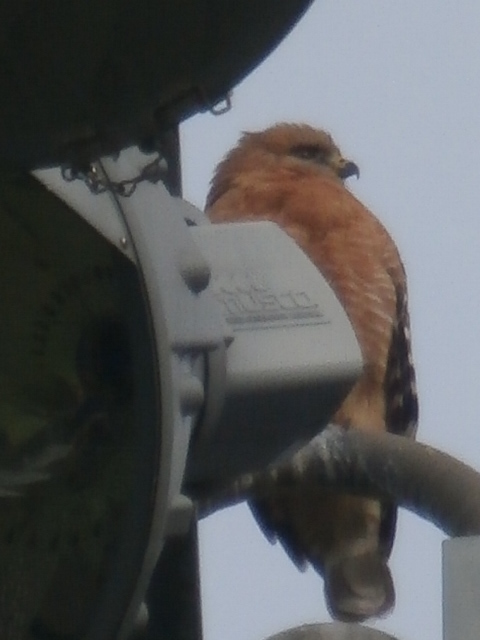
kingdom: Animalia
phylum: Chordata
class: Aves
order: Accipitriformes
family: Accipitridae
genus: Buteo
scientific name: Buteo lineatus
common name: Red-shouldered hawk
